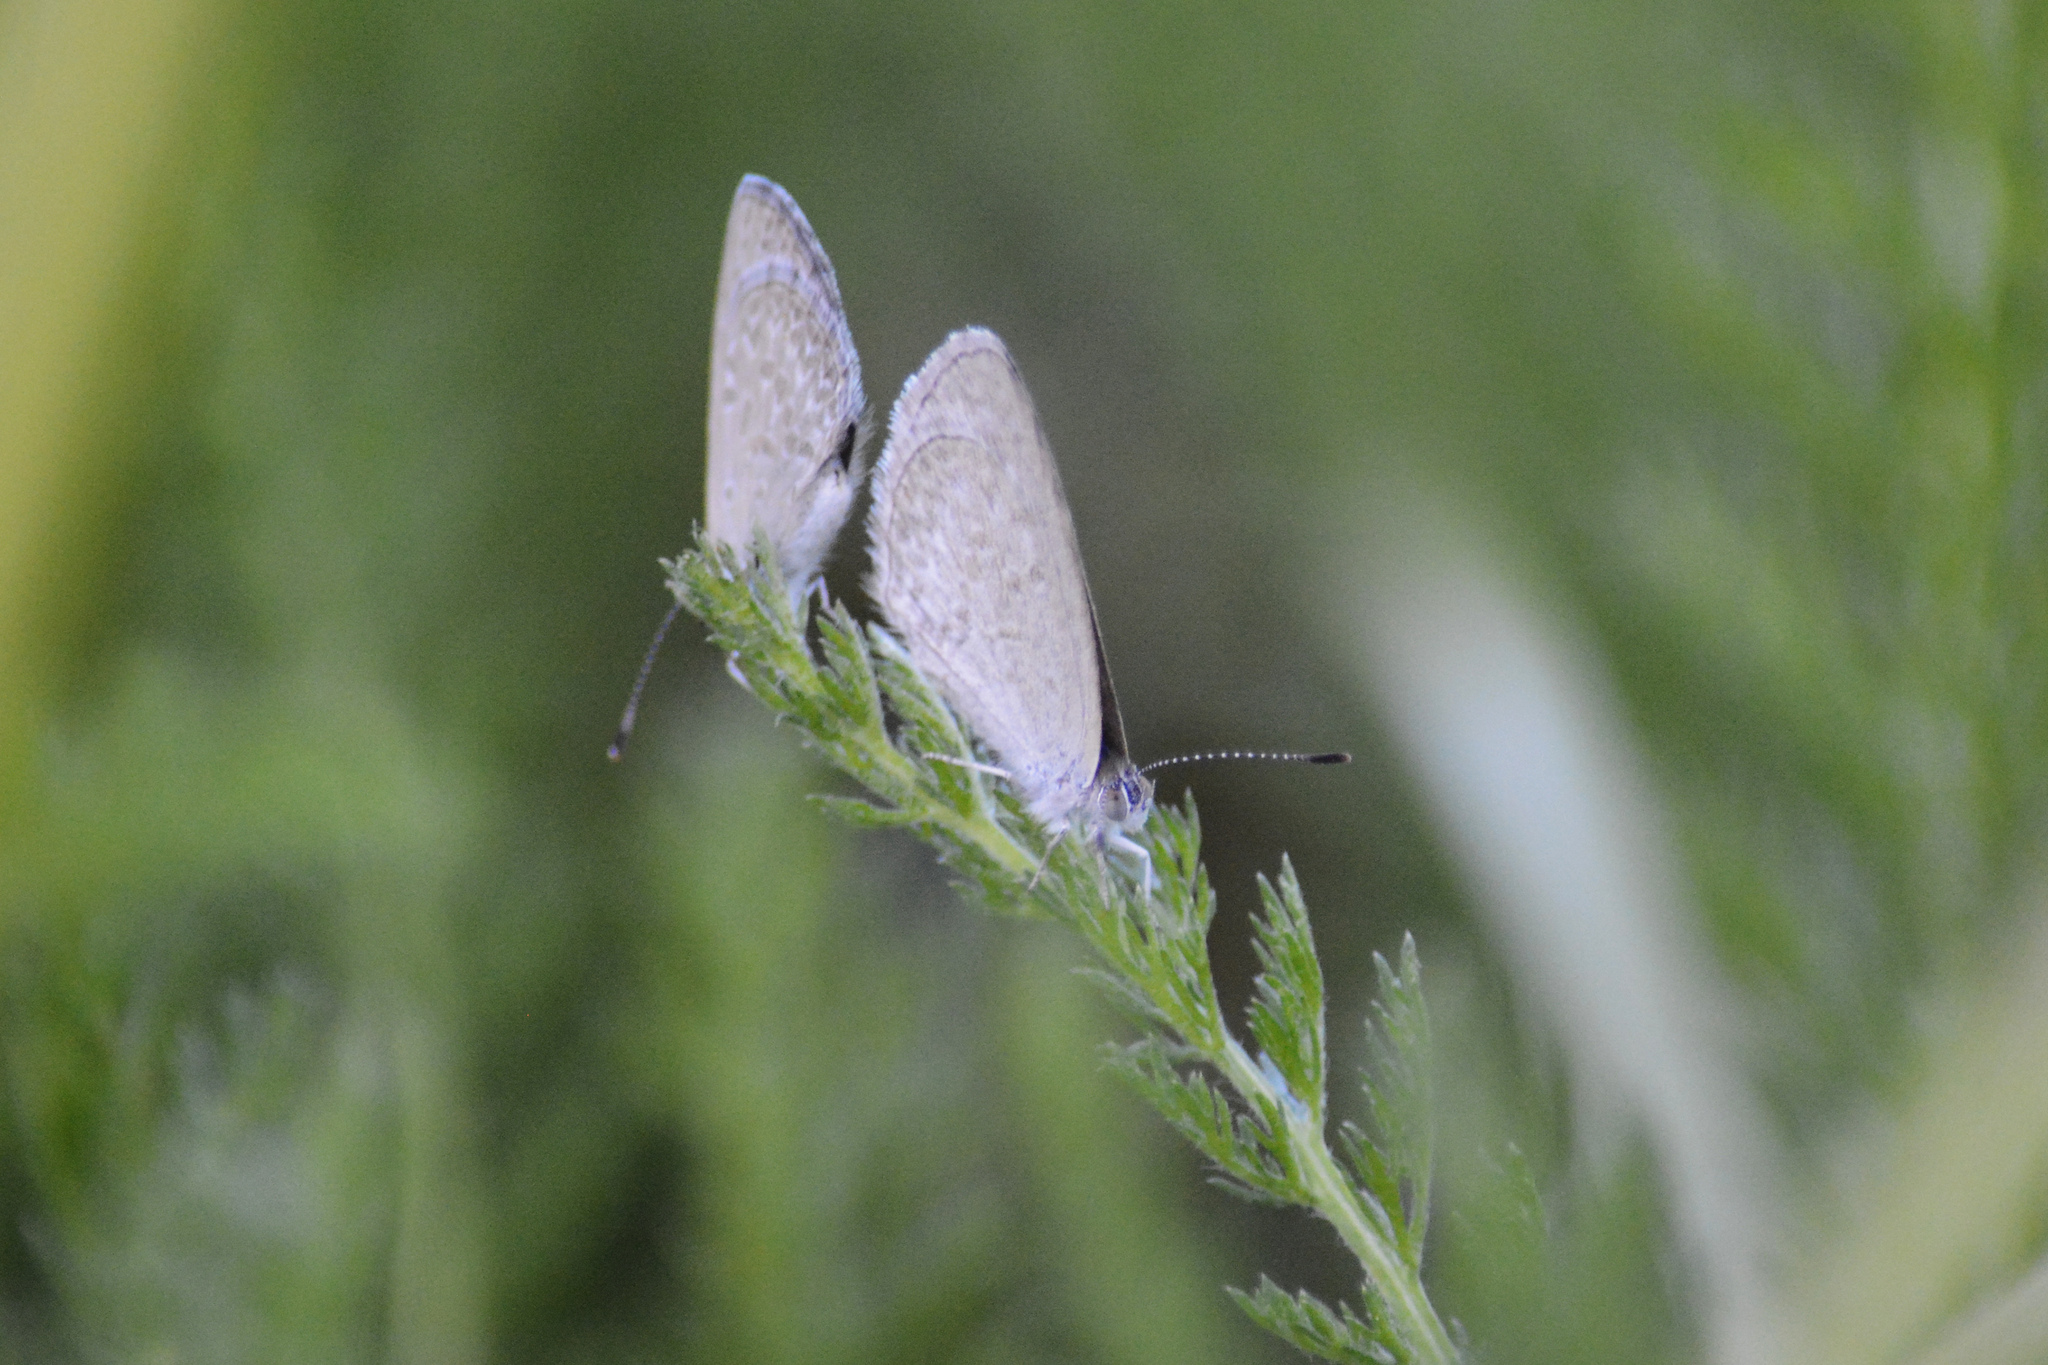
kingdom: Animalia
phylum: Arthropoda
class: Insecta
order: Lepidoptera
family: Lycaenidae
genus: Zizina
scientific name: Zizina otis
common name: Lesser grass blue
